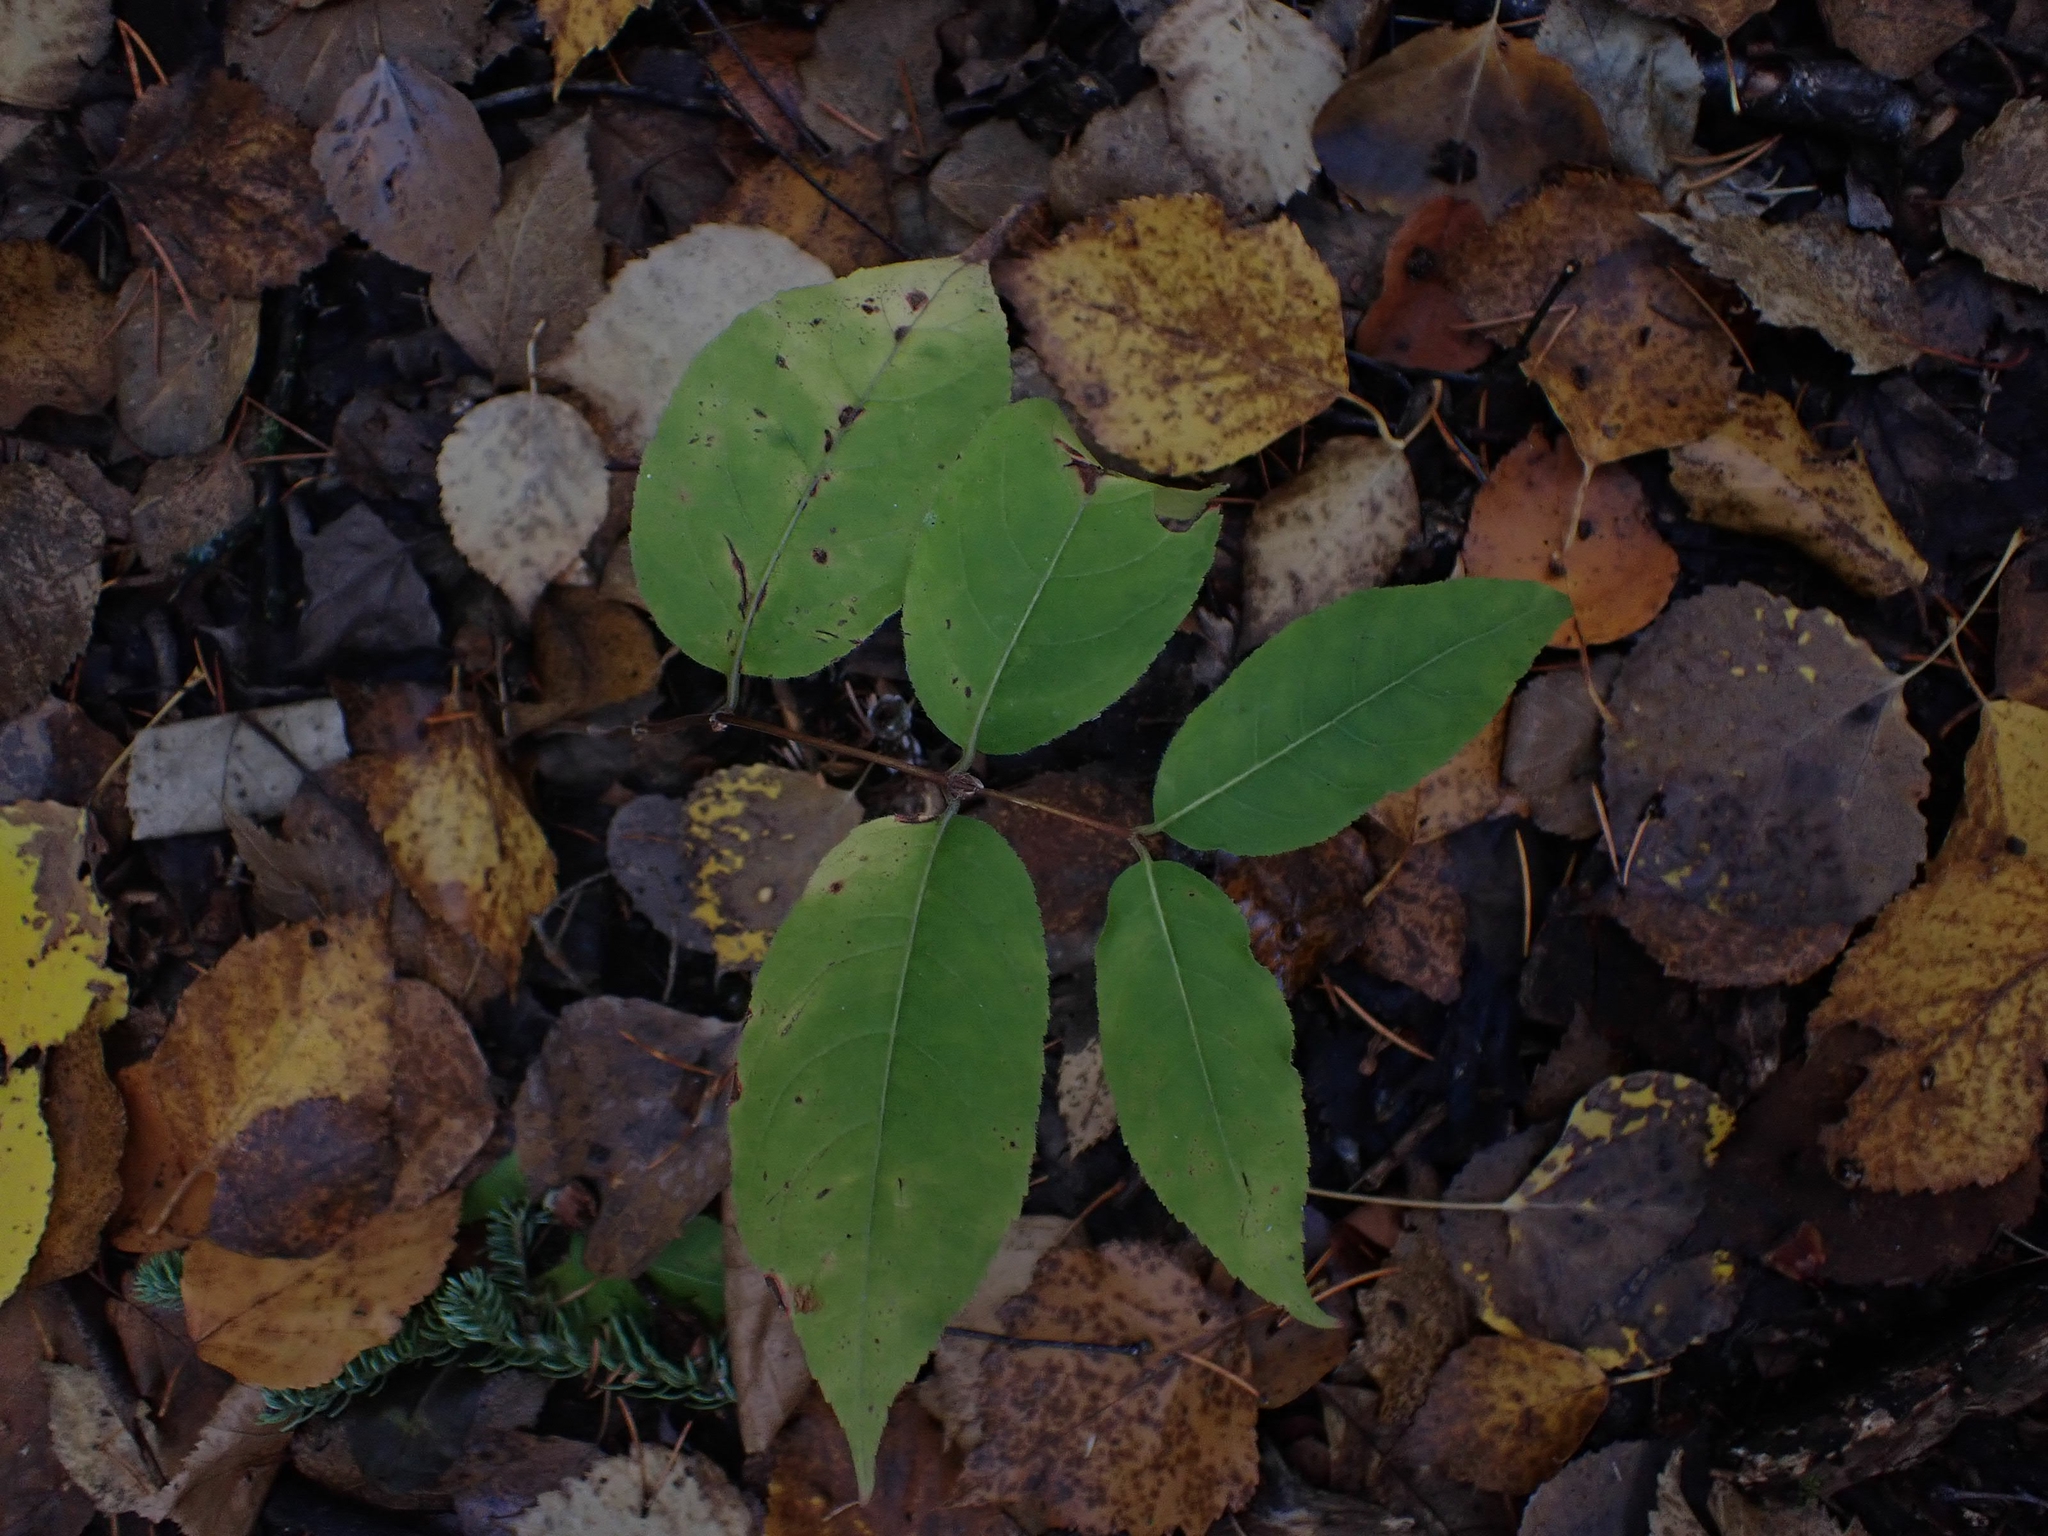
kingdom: Plantae
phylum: Tracheophyta
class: Magnoliopsida
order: Dipsacales
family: Caprifoliaceae
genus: Diervilla
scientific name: Diervilla lonicera
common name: Bush-honeysuckle
